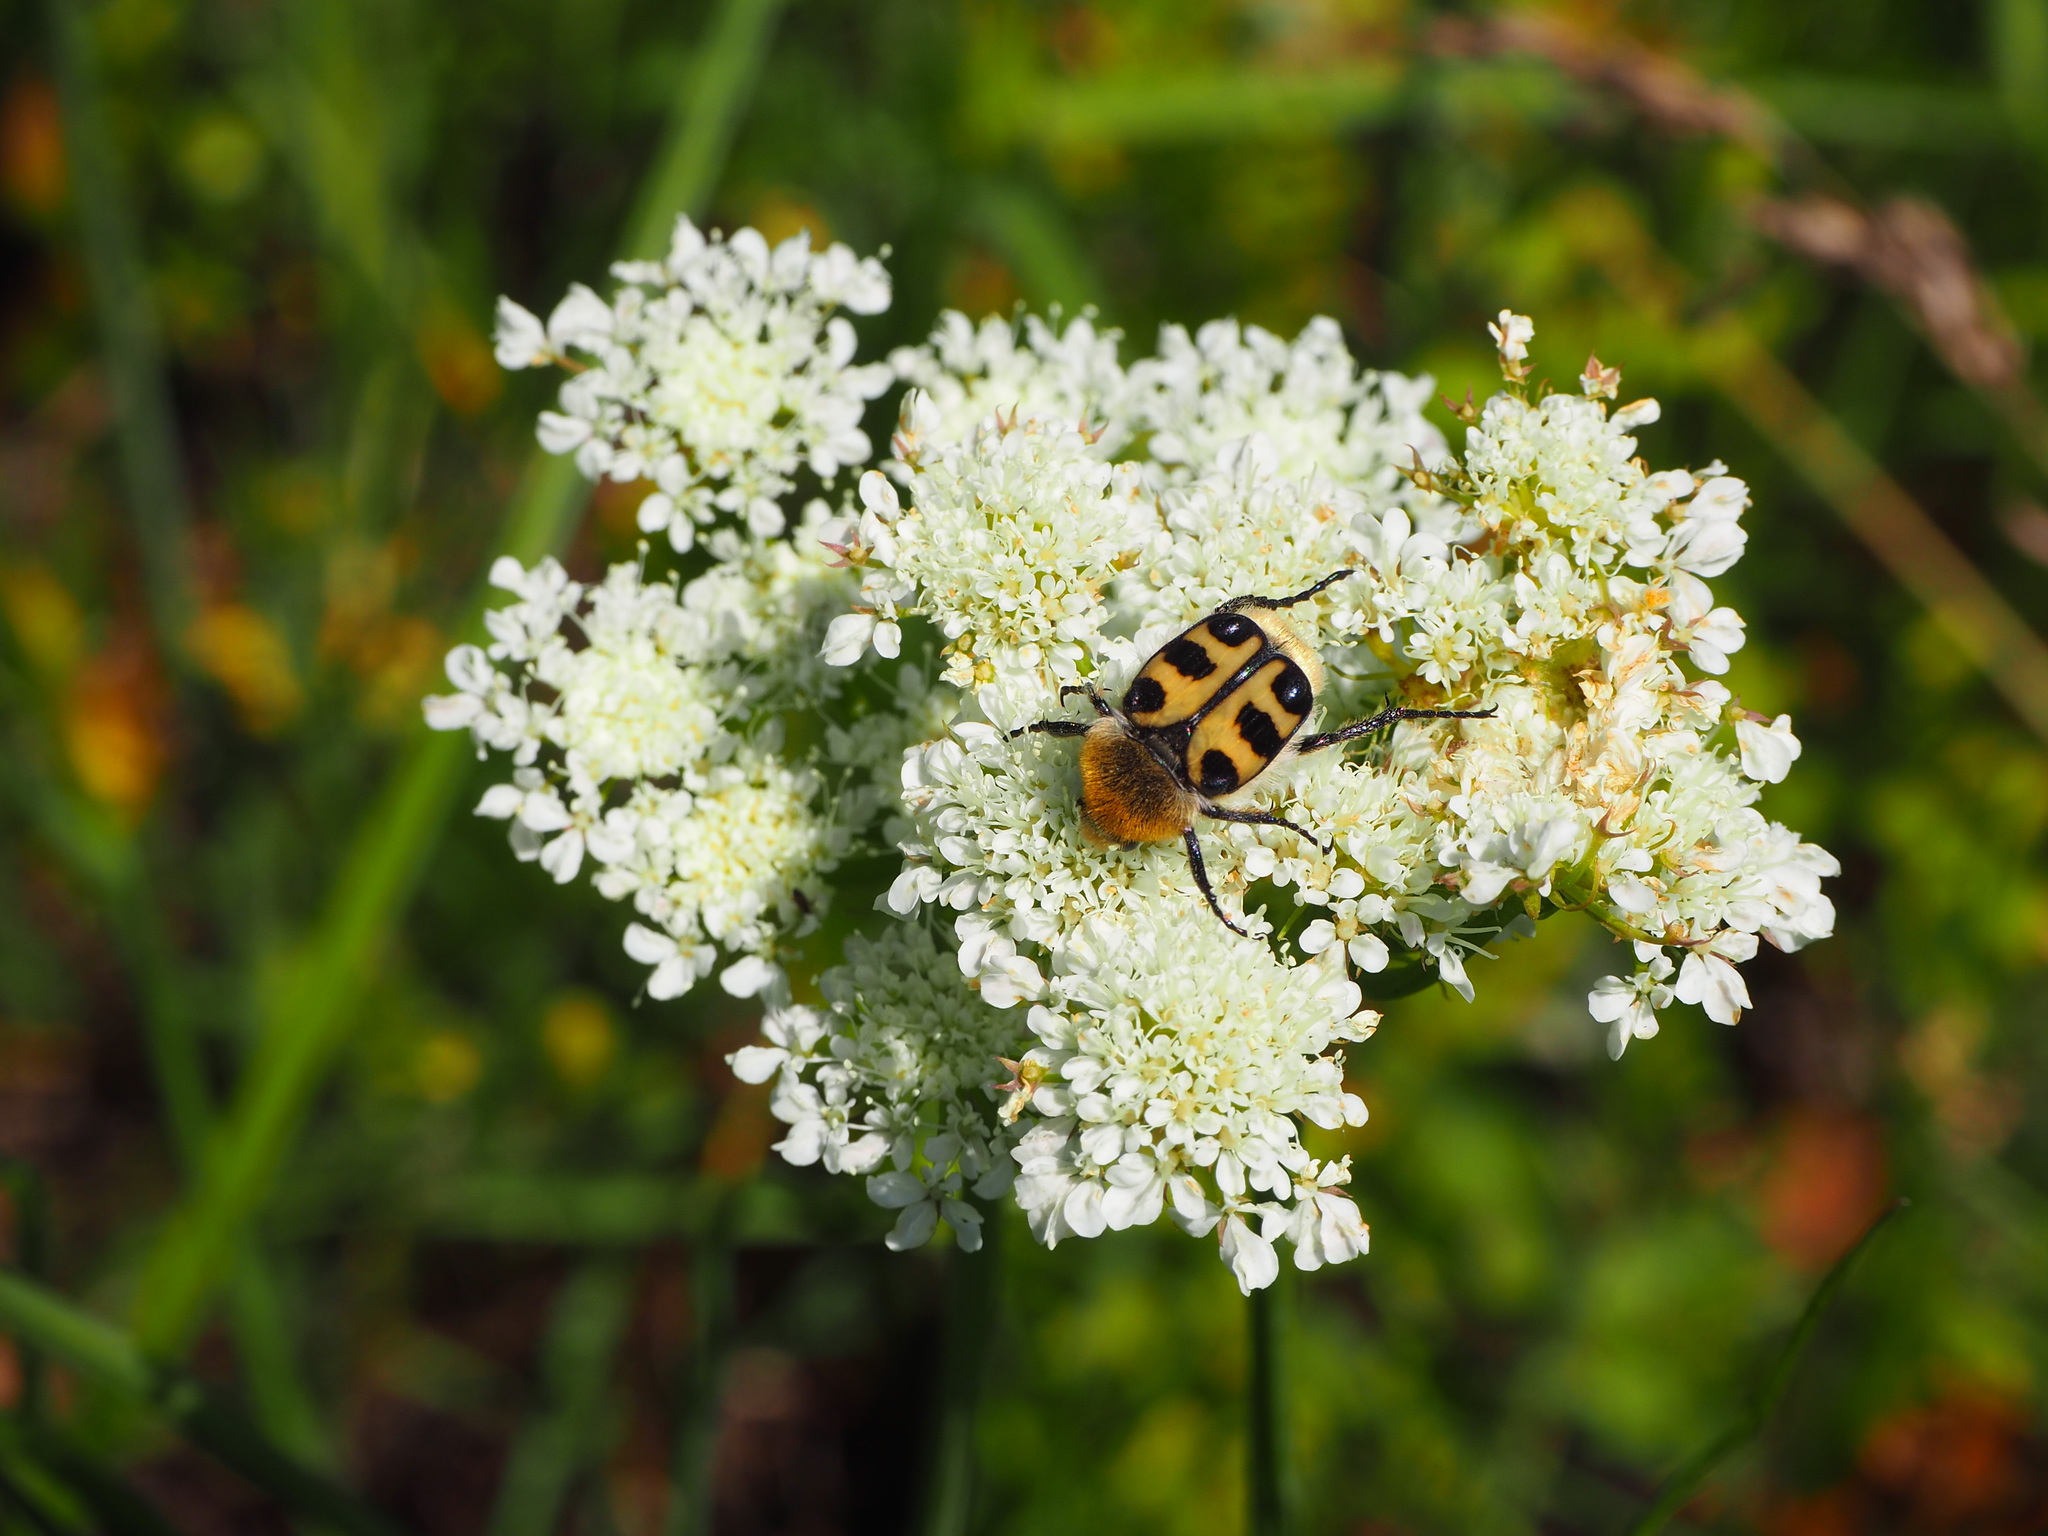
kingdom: Animalia
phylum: Arthropoda
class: Insecta
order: Coleoptera
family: Scarabaeidae
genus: Trichius
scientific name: Trichius gallicus
